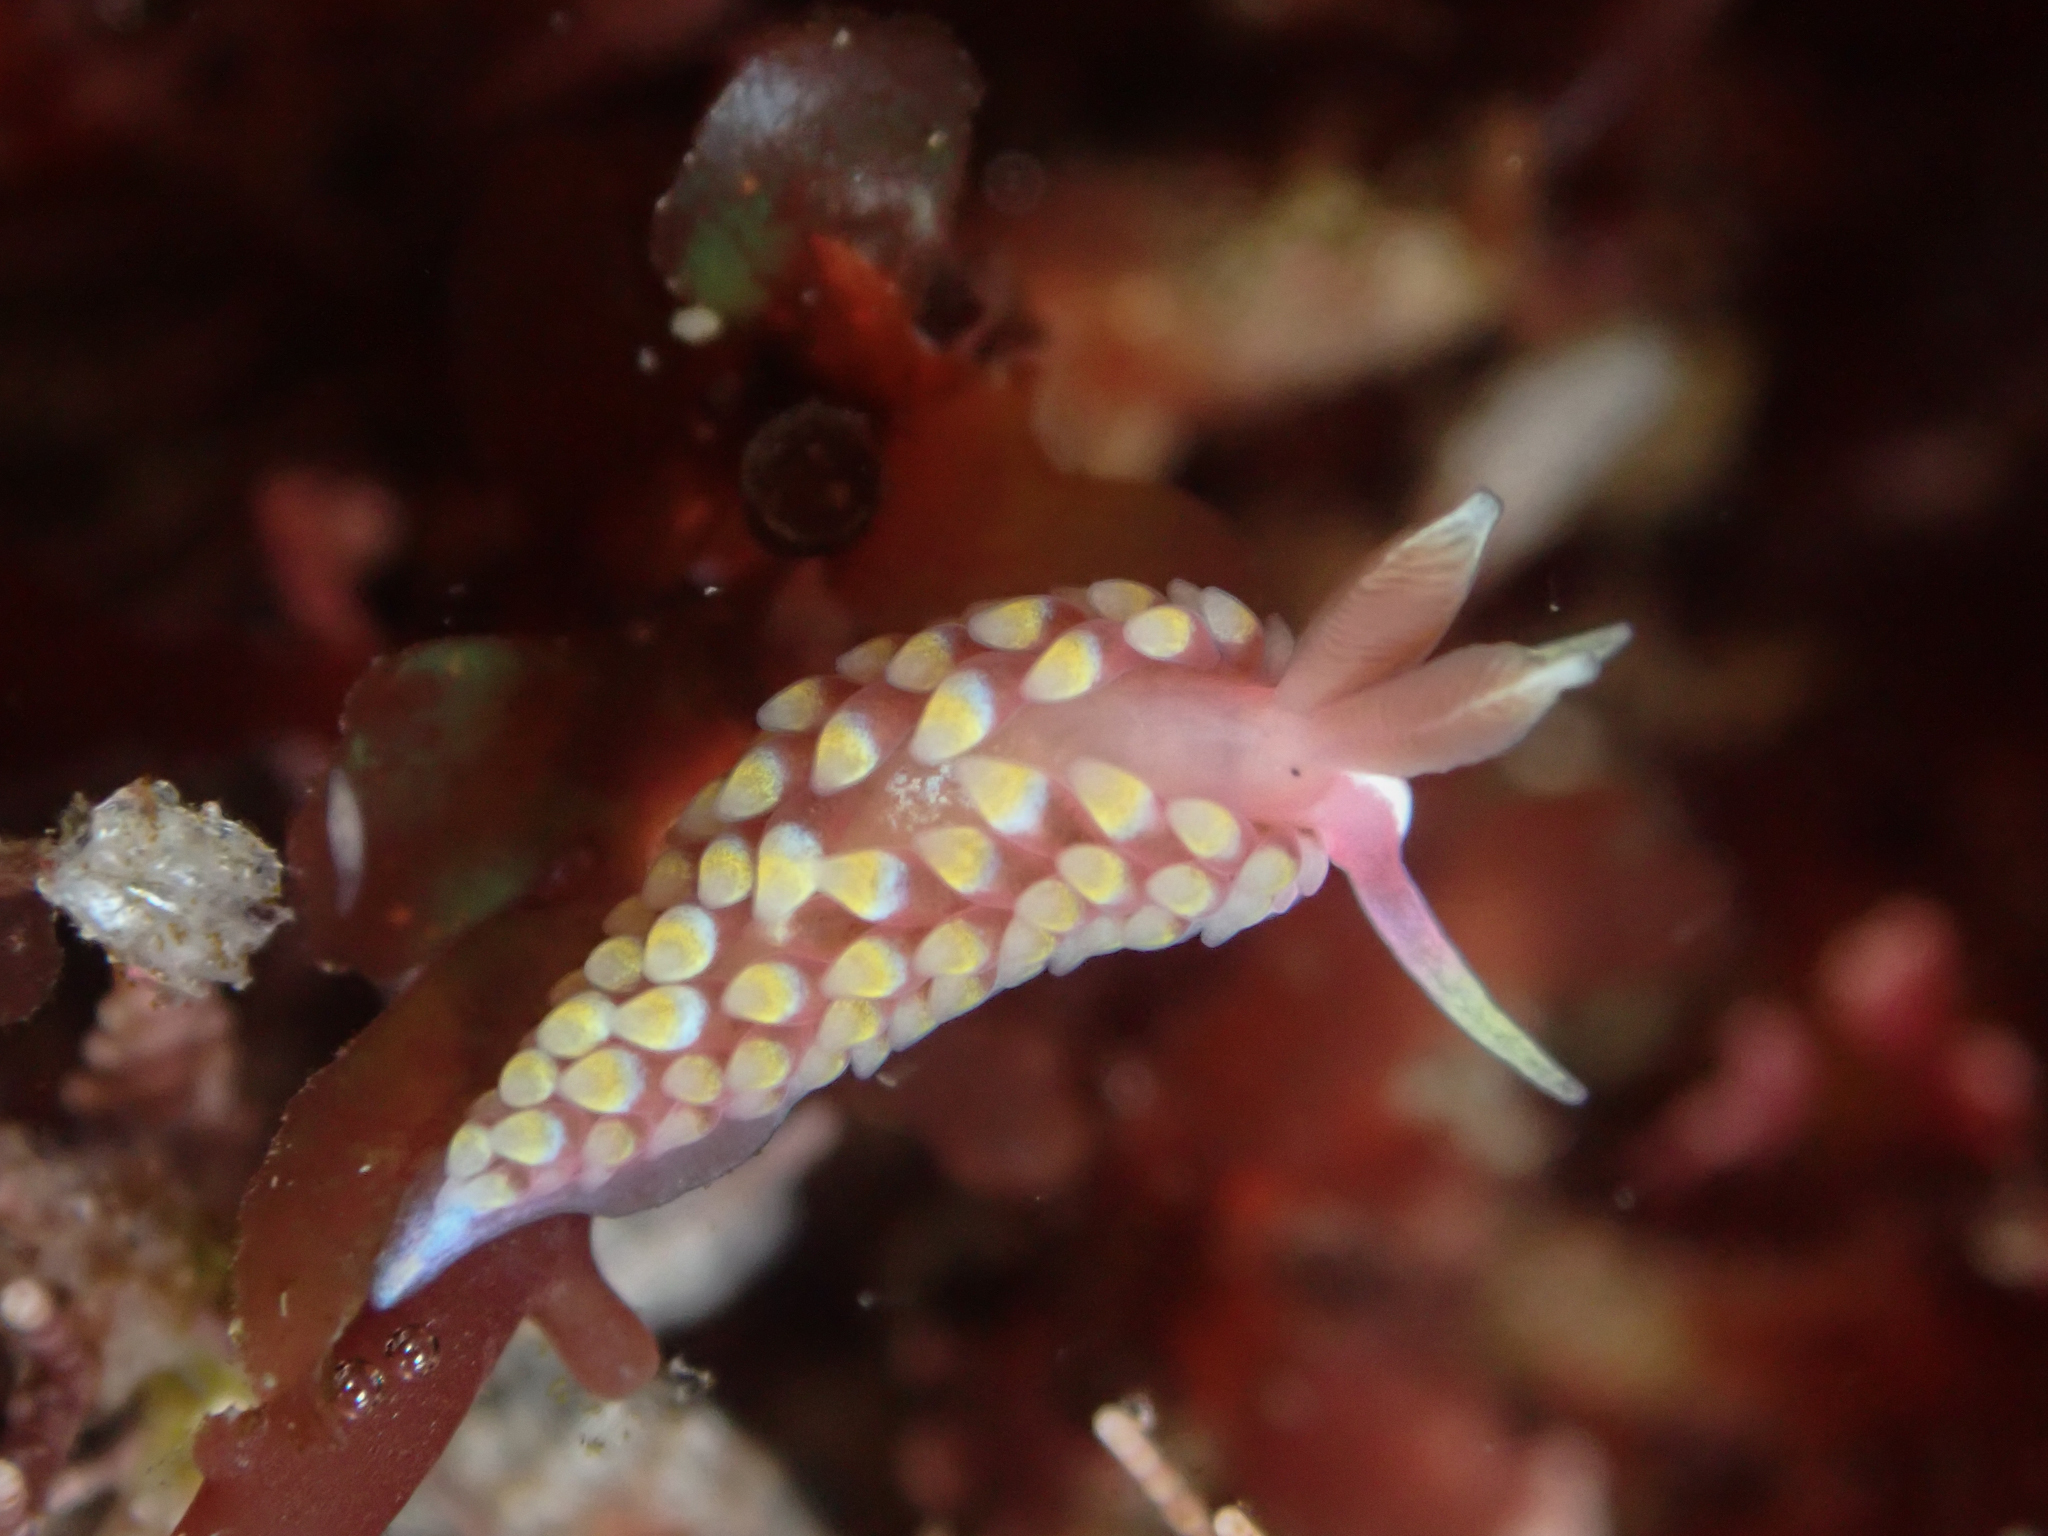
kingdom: Animalia
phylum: Mollusca
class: Gastropoda
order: Nudibranchia
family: Babakinidae
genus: Babakina
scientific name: Babakina festiva
